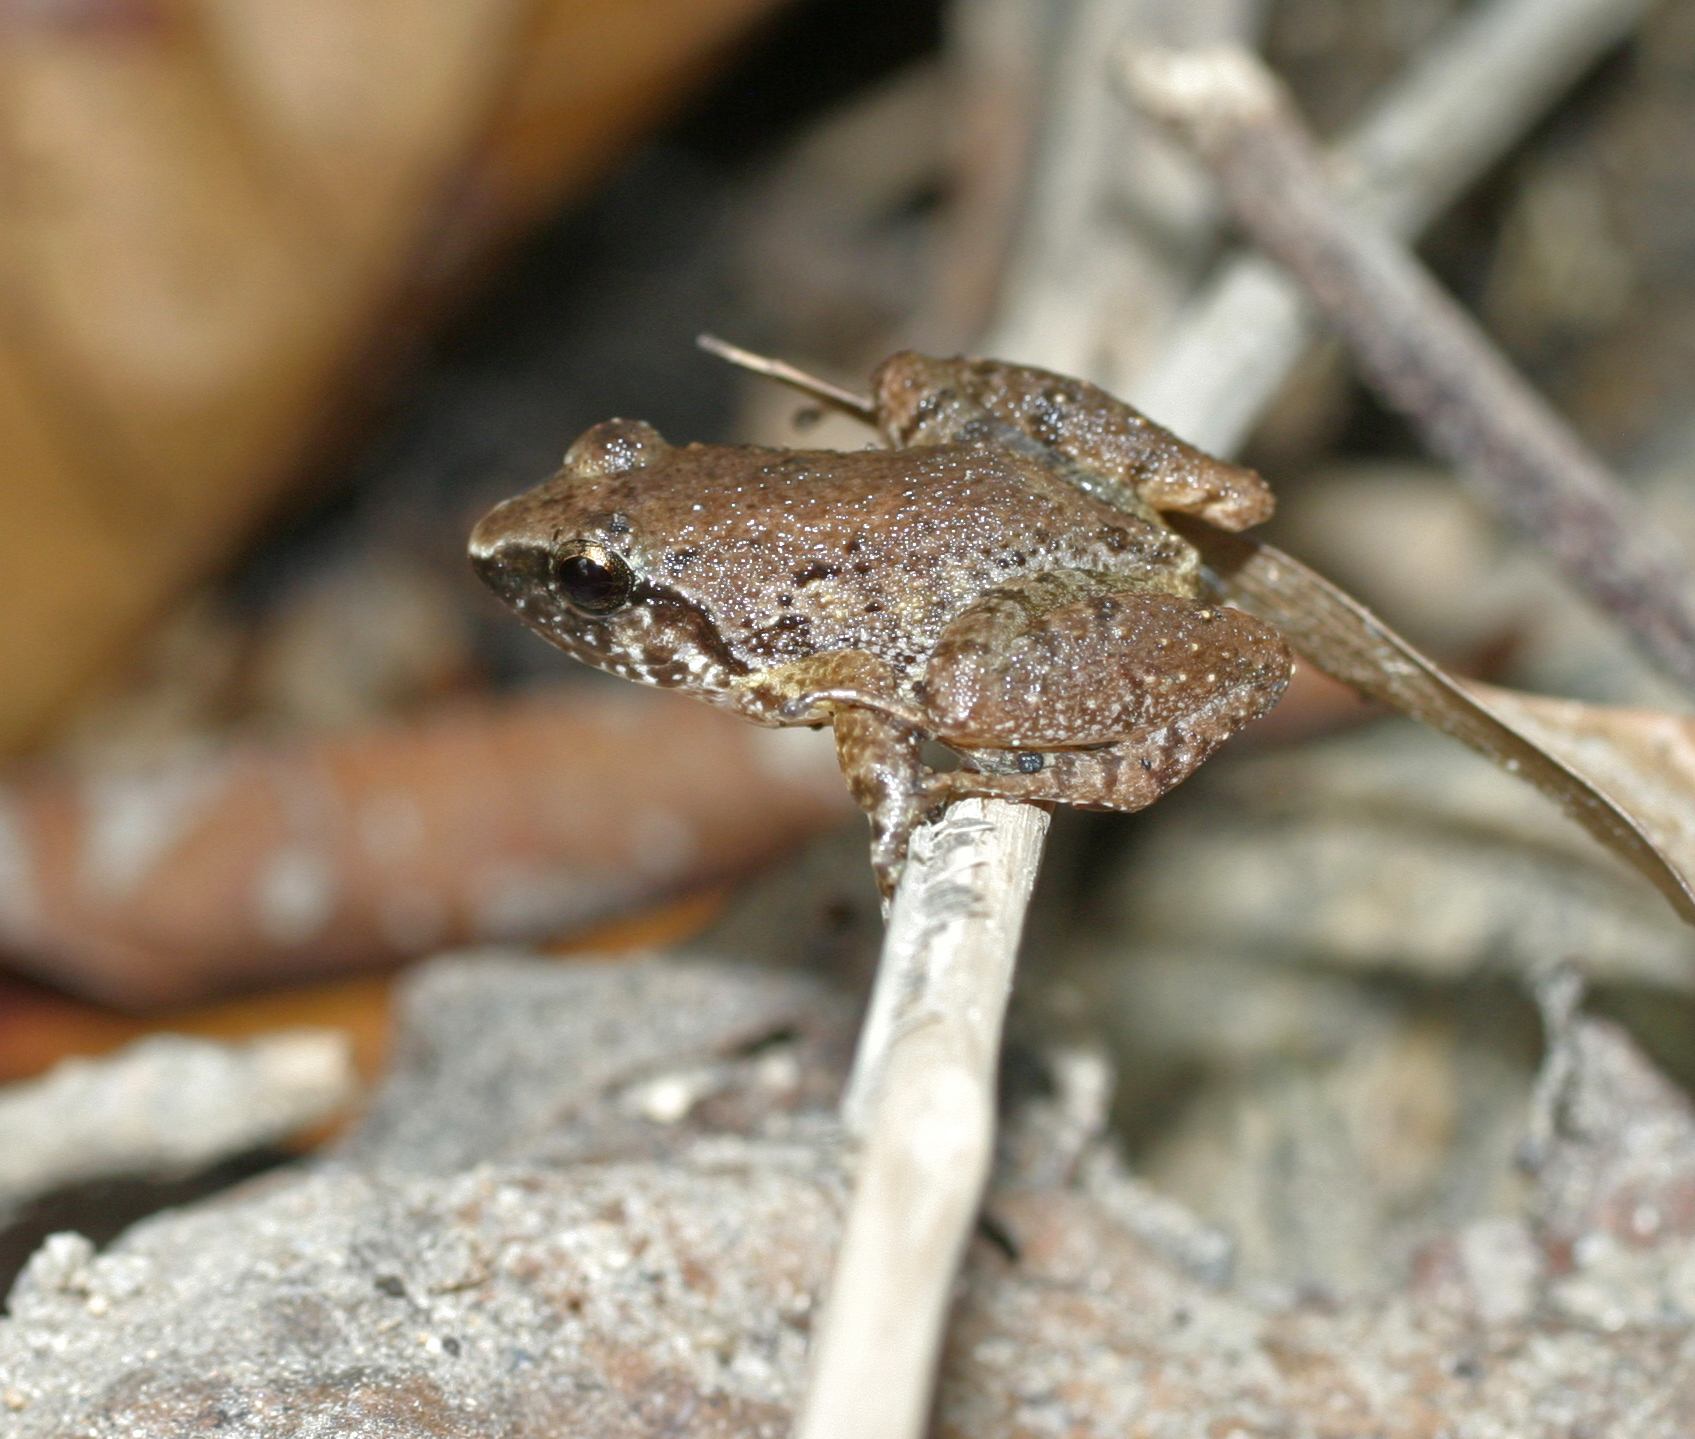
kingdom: Animalia
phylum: Chordata
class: Amphibia
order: Anura
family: Dicroglossidae
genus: Limnonectes
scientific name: Limnonectes hascheanus
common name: Hill forest frog
